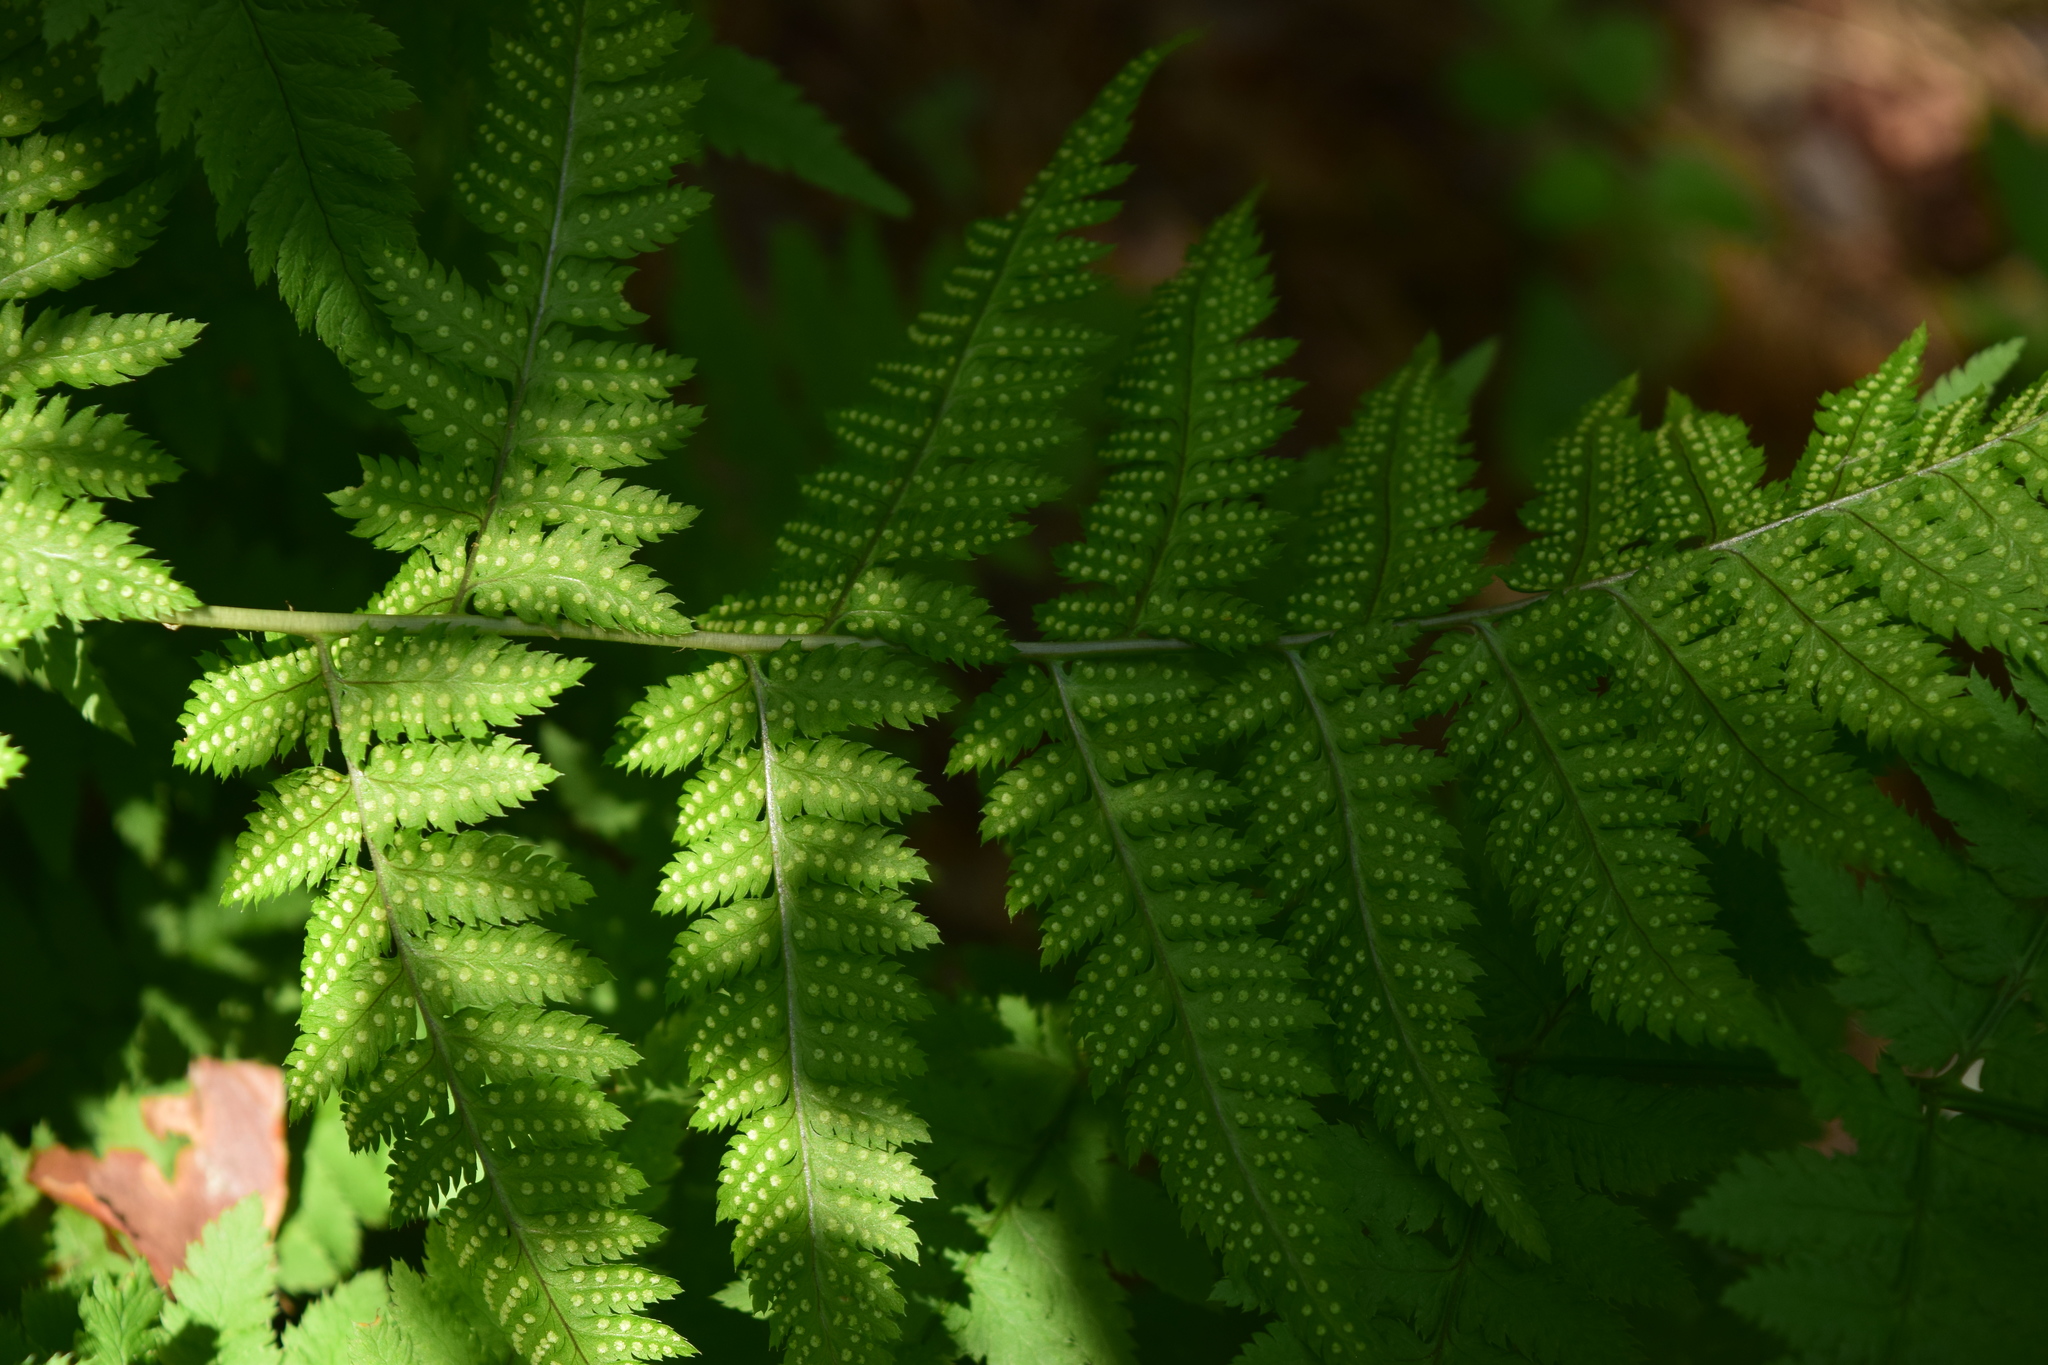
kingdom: Plantae
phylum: Tracheophyta
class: Polypodiopsida
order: Polypodiales
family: Dryopteridaceae
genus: Dryopteris
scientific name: Dryopteris carthusiana
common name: Narrow buckler-fern
